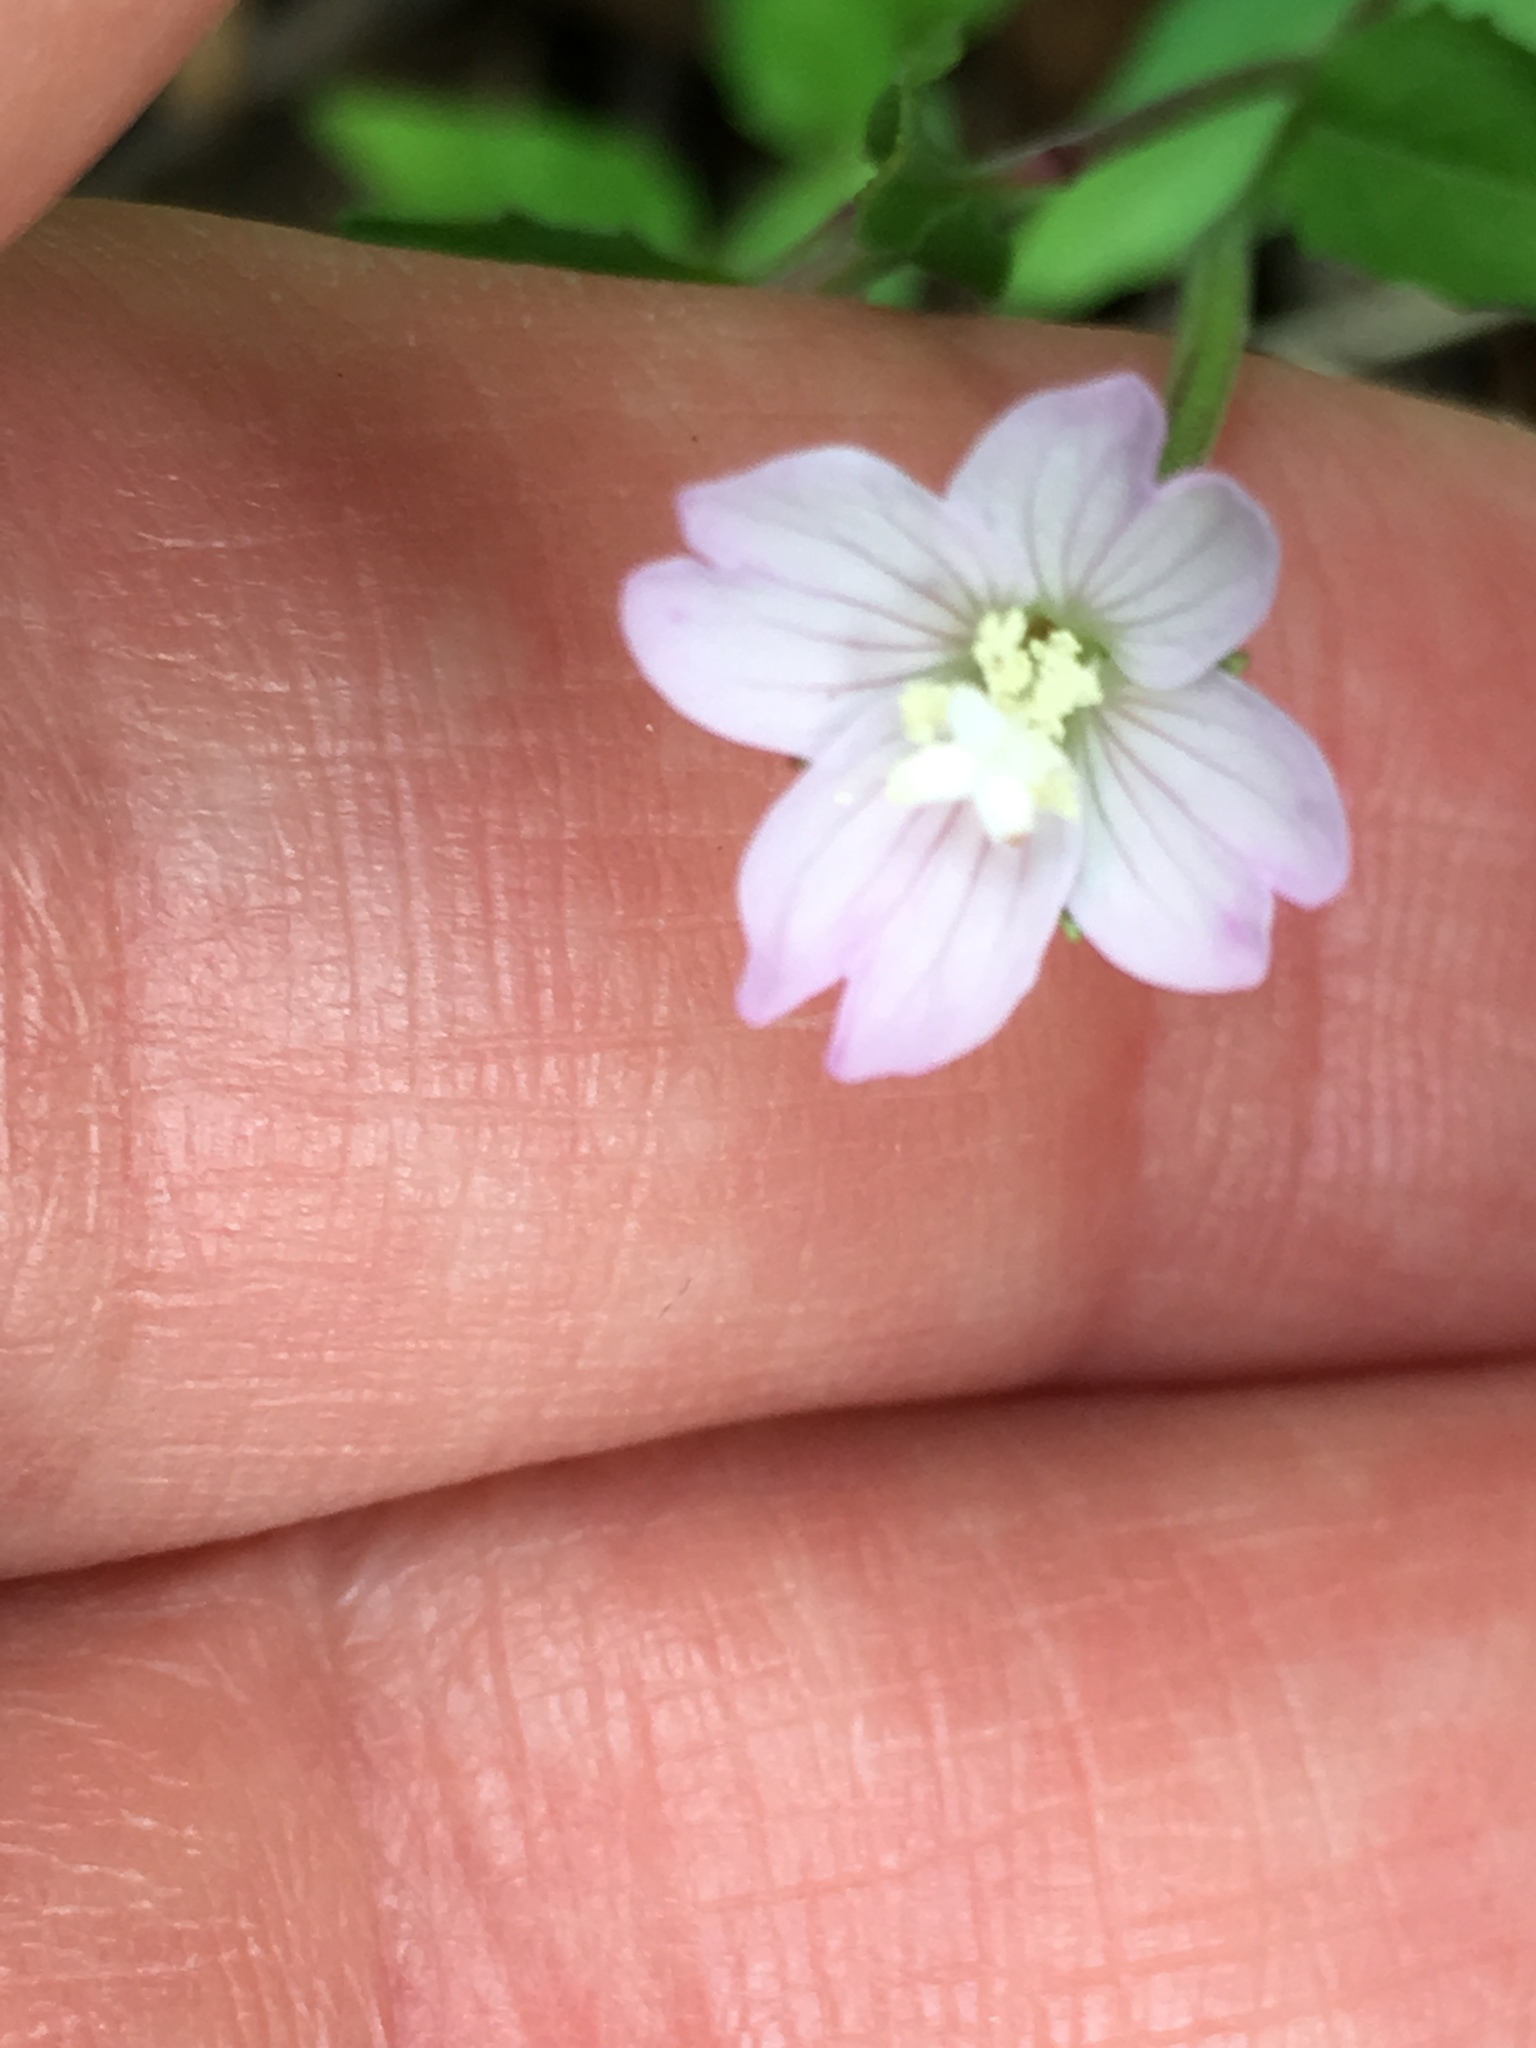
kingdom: Plantae
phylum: Tracheophyta
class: Magnoliopsida
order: Myrtales
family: Onagraceae
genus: Epilobium
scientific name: Epilobium montanum
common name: Broad-leaved willowherb
